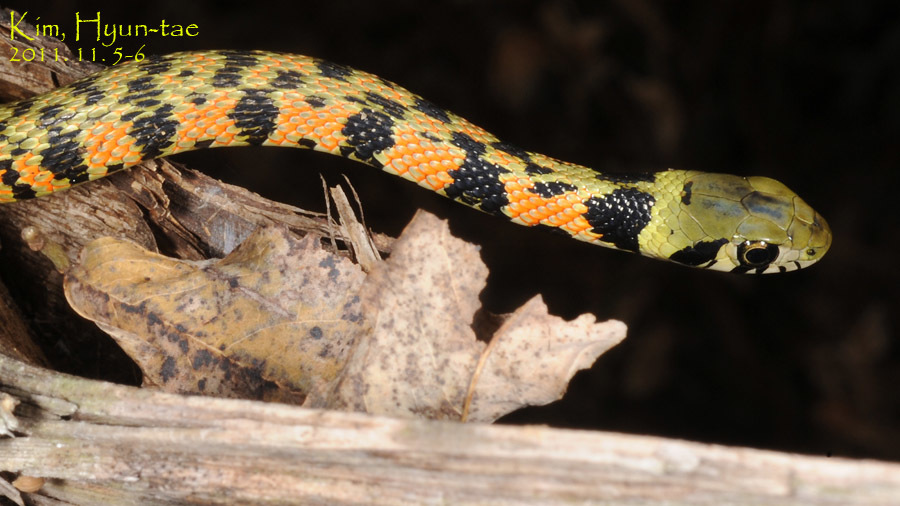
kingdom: Animalia
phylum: Chordata
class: Squamata
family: Colubridae
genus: Rhabdophis
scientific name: Rhabdophis tigrinus
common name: Tiger keelback
